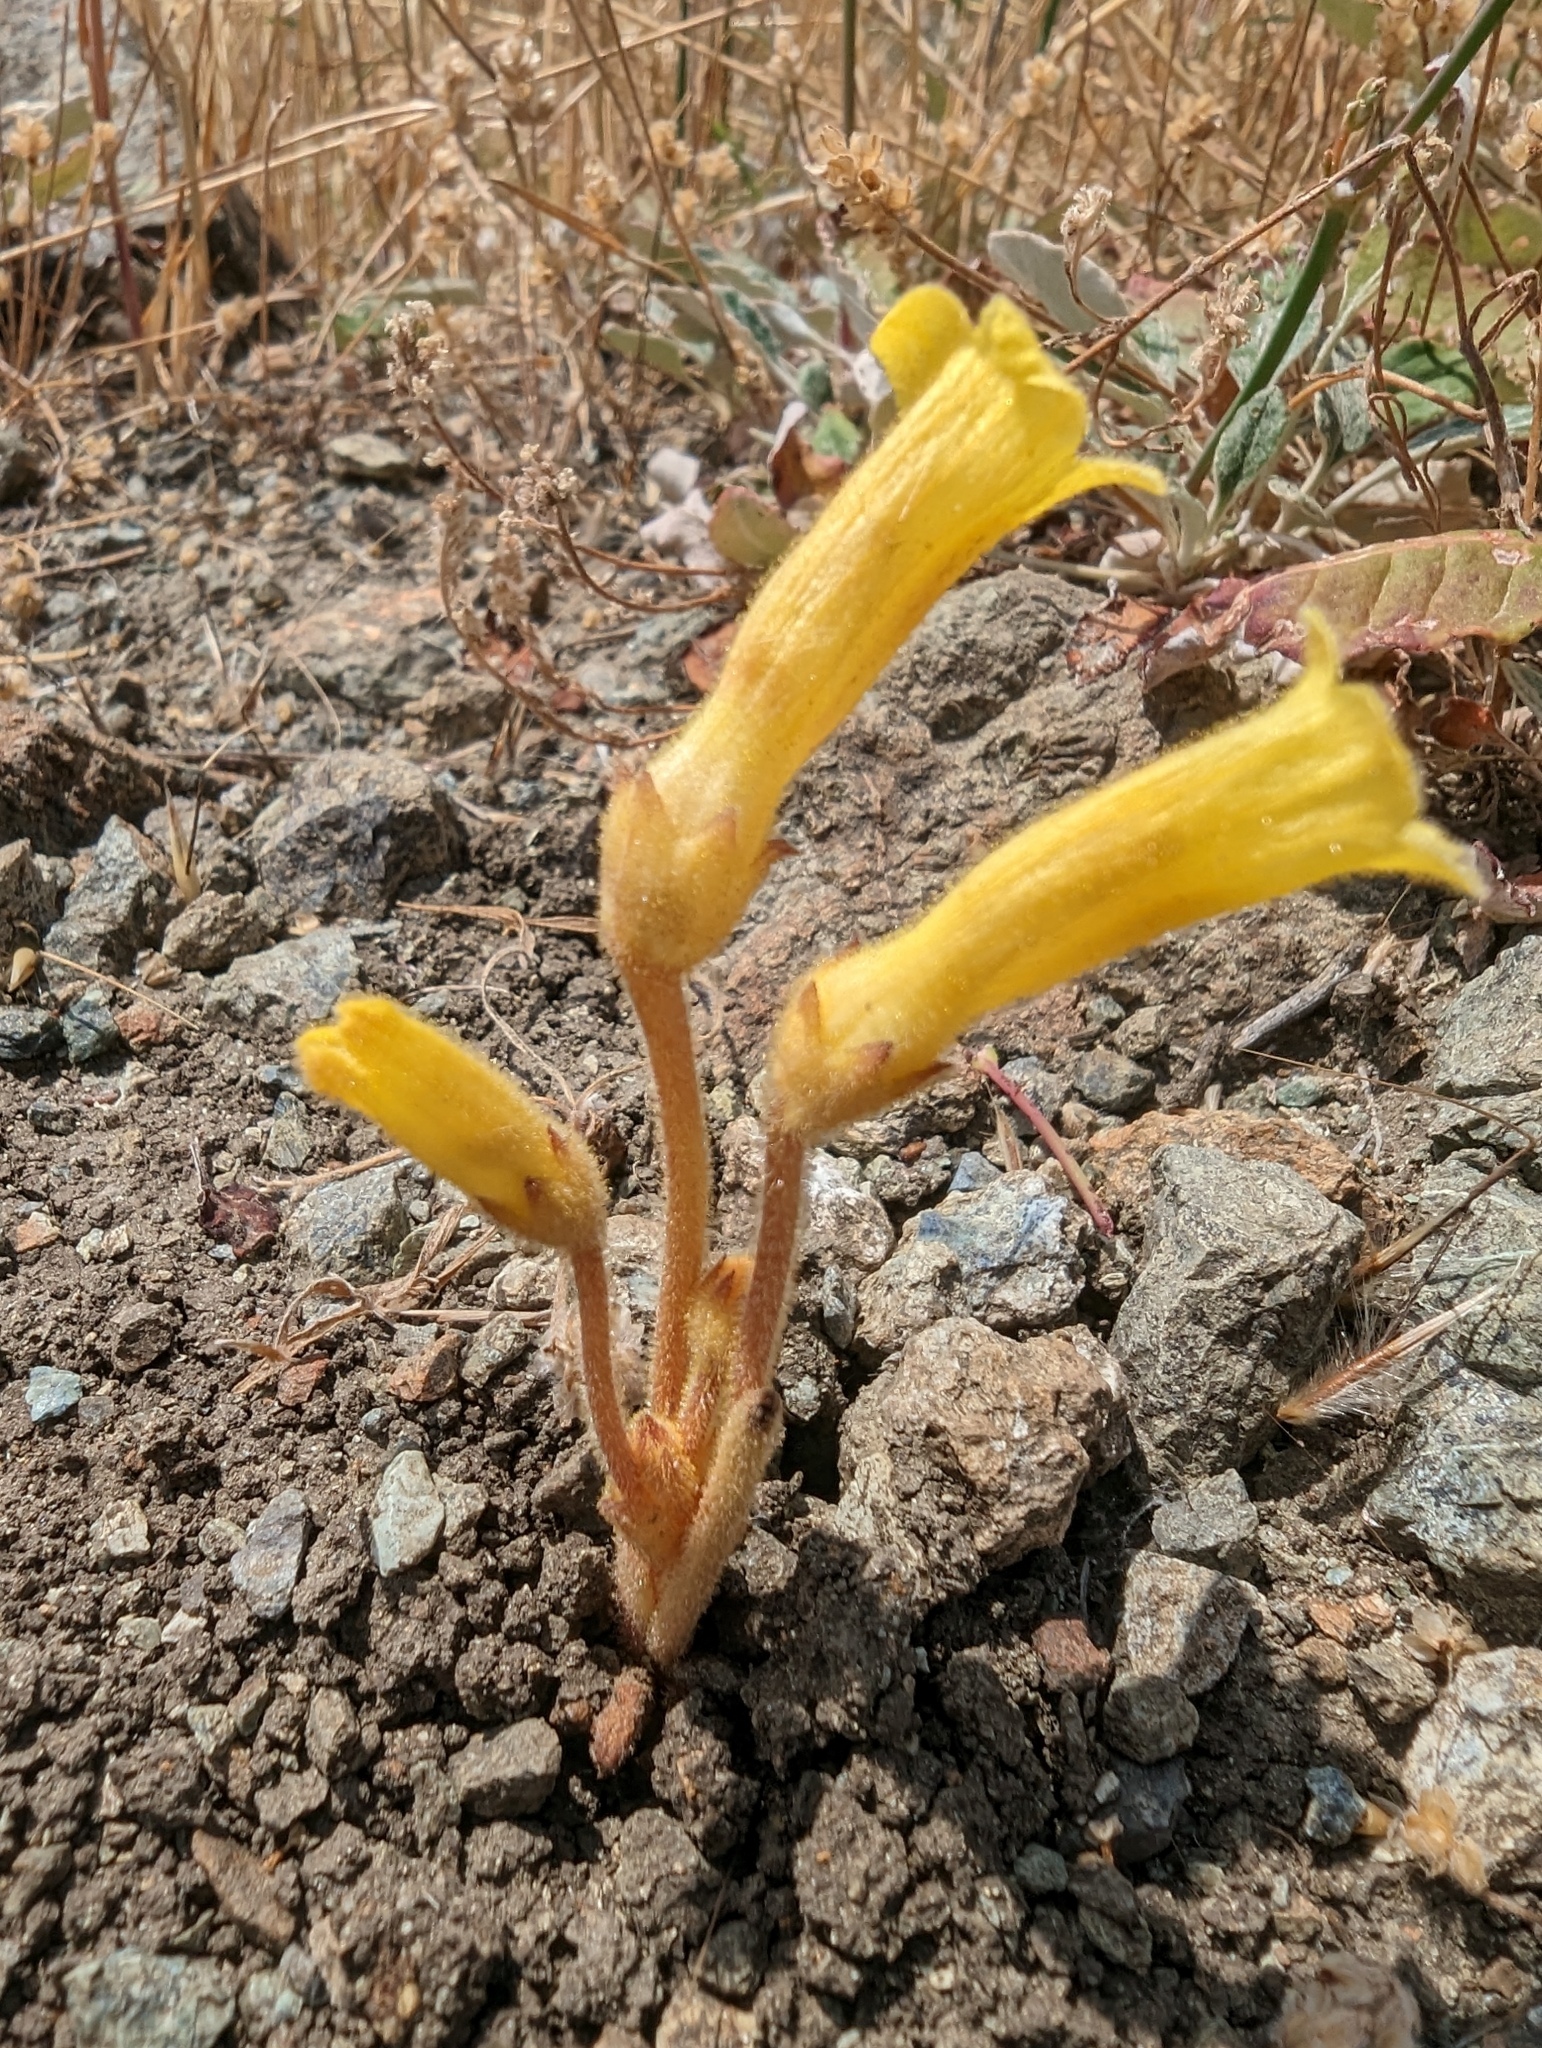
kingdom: Plantae
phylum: Tracheophyta
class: Magnoliopsida
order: Lamiales
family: Orobanchaceae
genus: Aphyllon
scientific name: Aphyllon franciscanum
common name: San francisco broomrape
